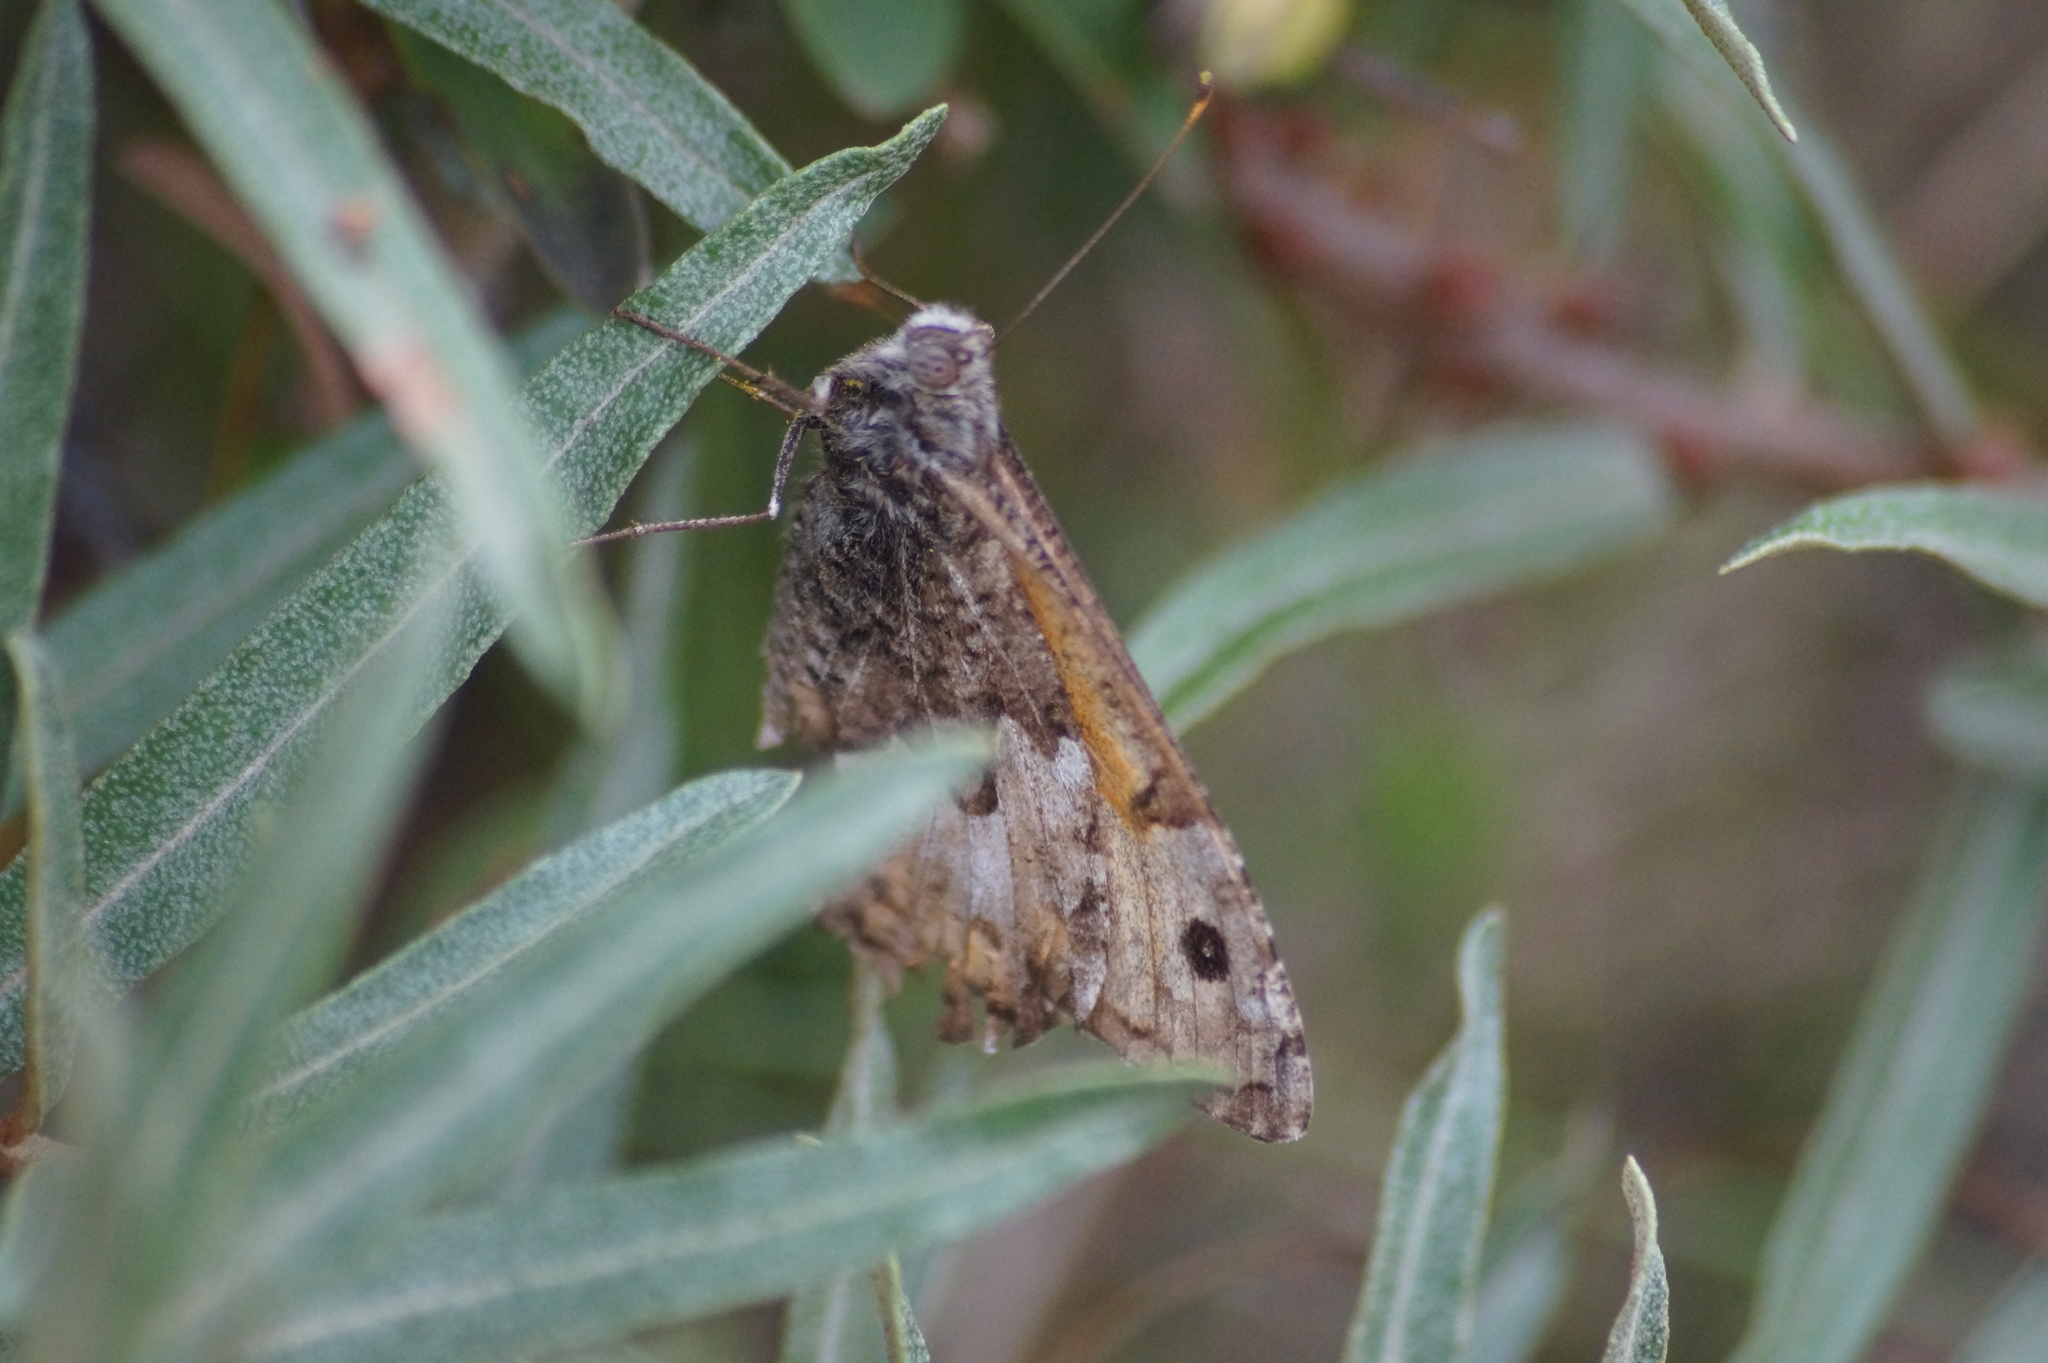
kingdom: Animalia
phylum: Arthropoda
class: Insecta
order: Lepidoptera
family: Nymphalidae
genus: Hipparchia
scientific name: Hipparchia semele
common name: Grayling
